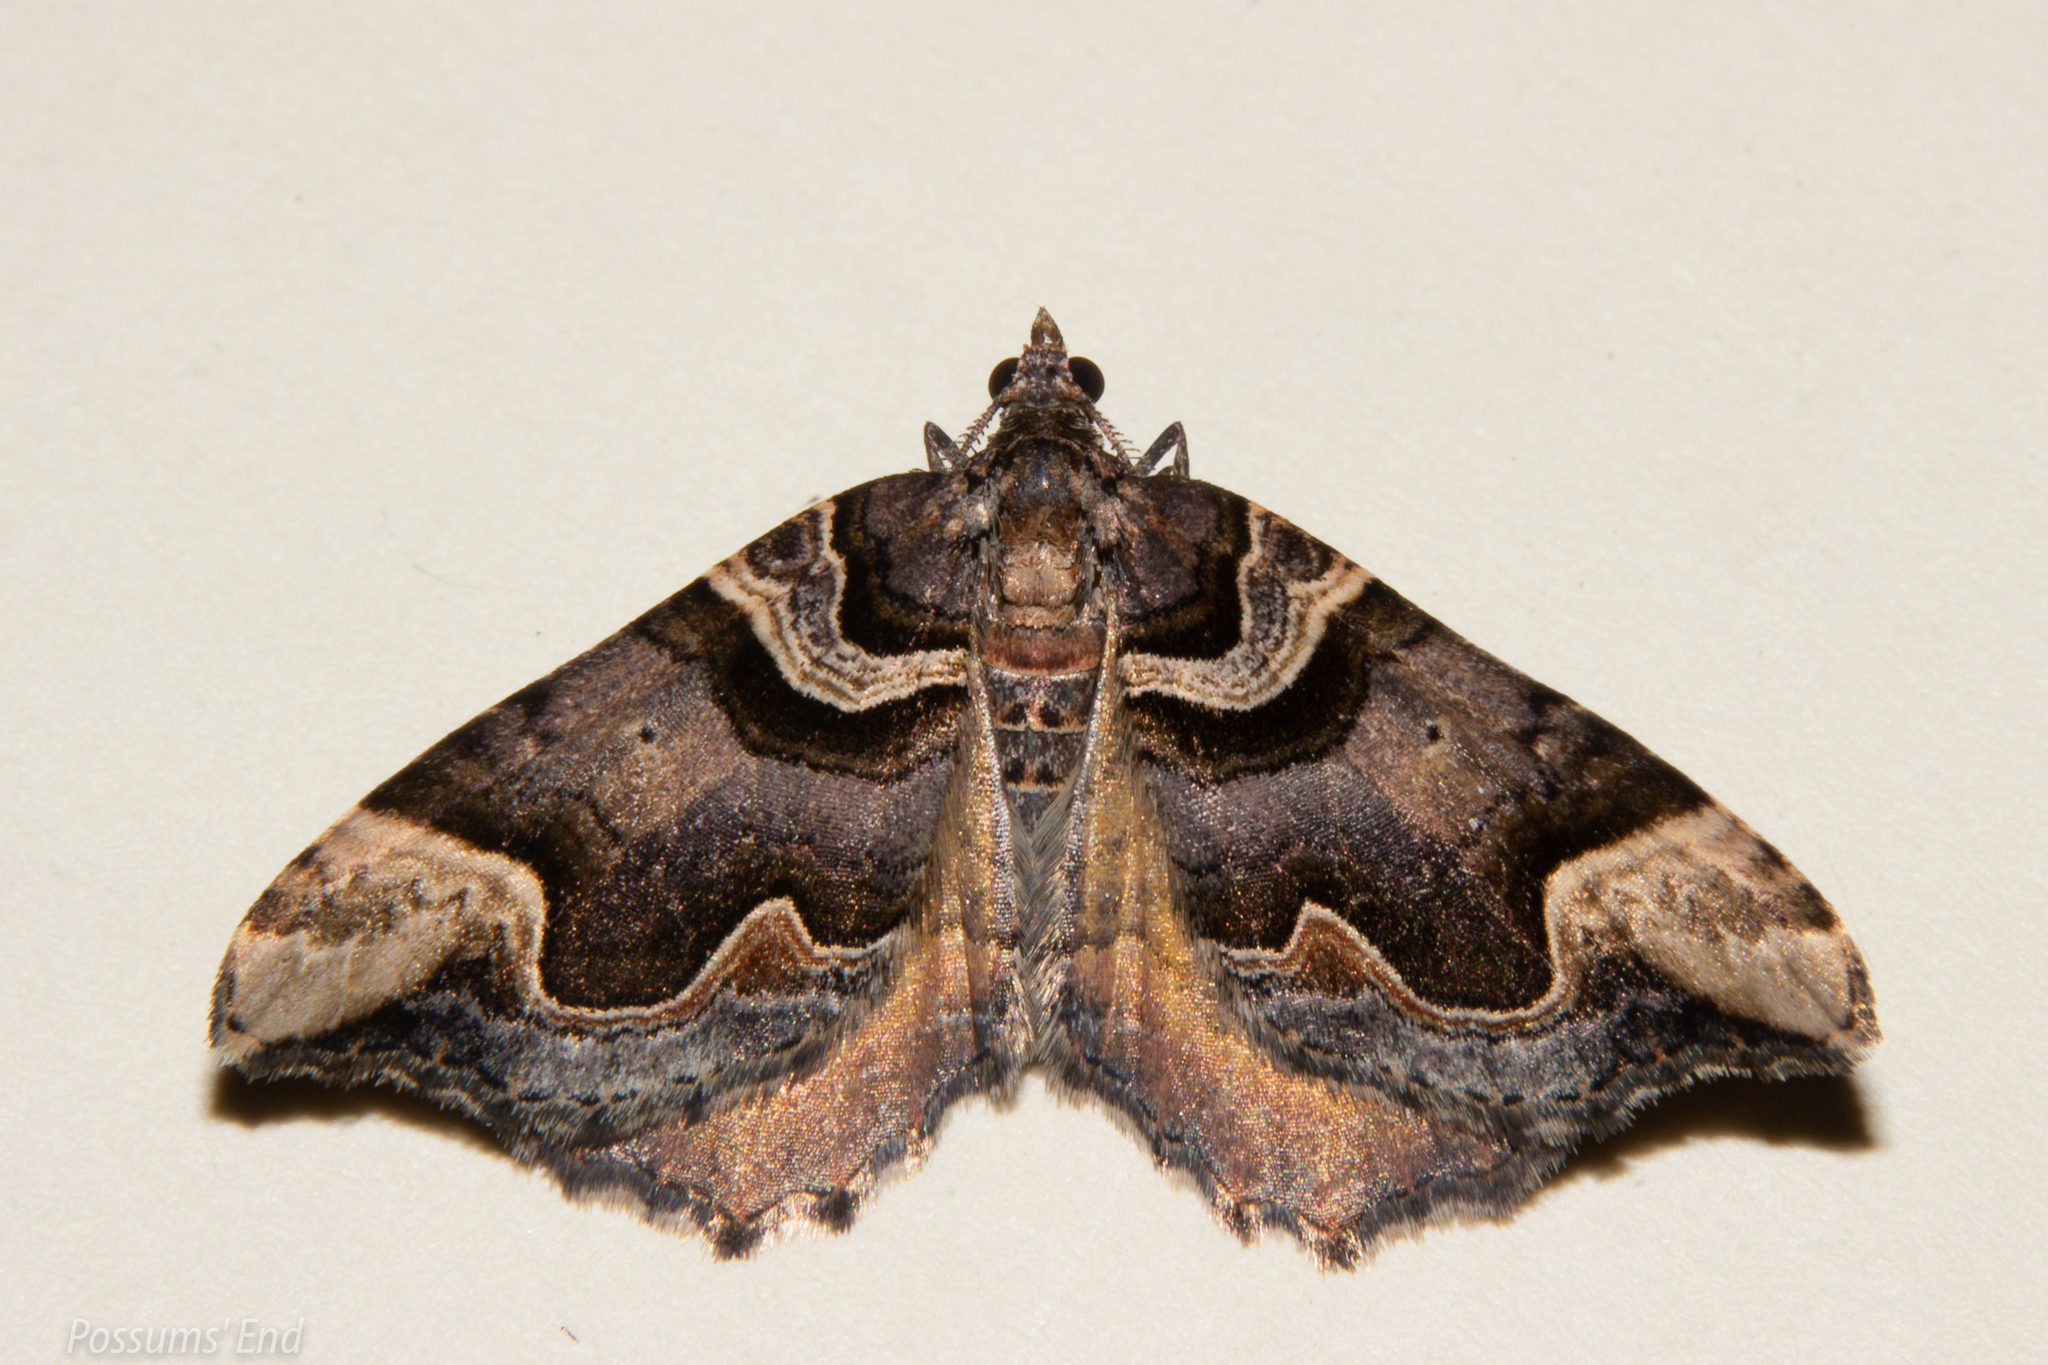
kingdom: Animalia
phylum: Arthropoda
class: Insecta
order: Lepidoptera
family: Geometridae
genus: Asaphodes
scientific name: Asaphodes chlamydota
